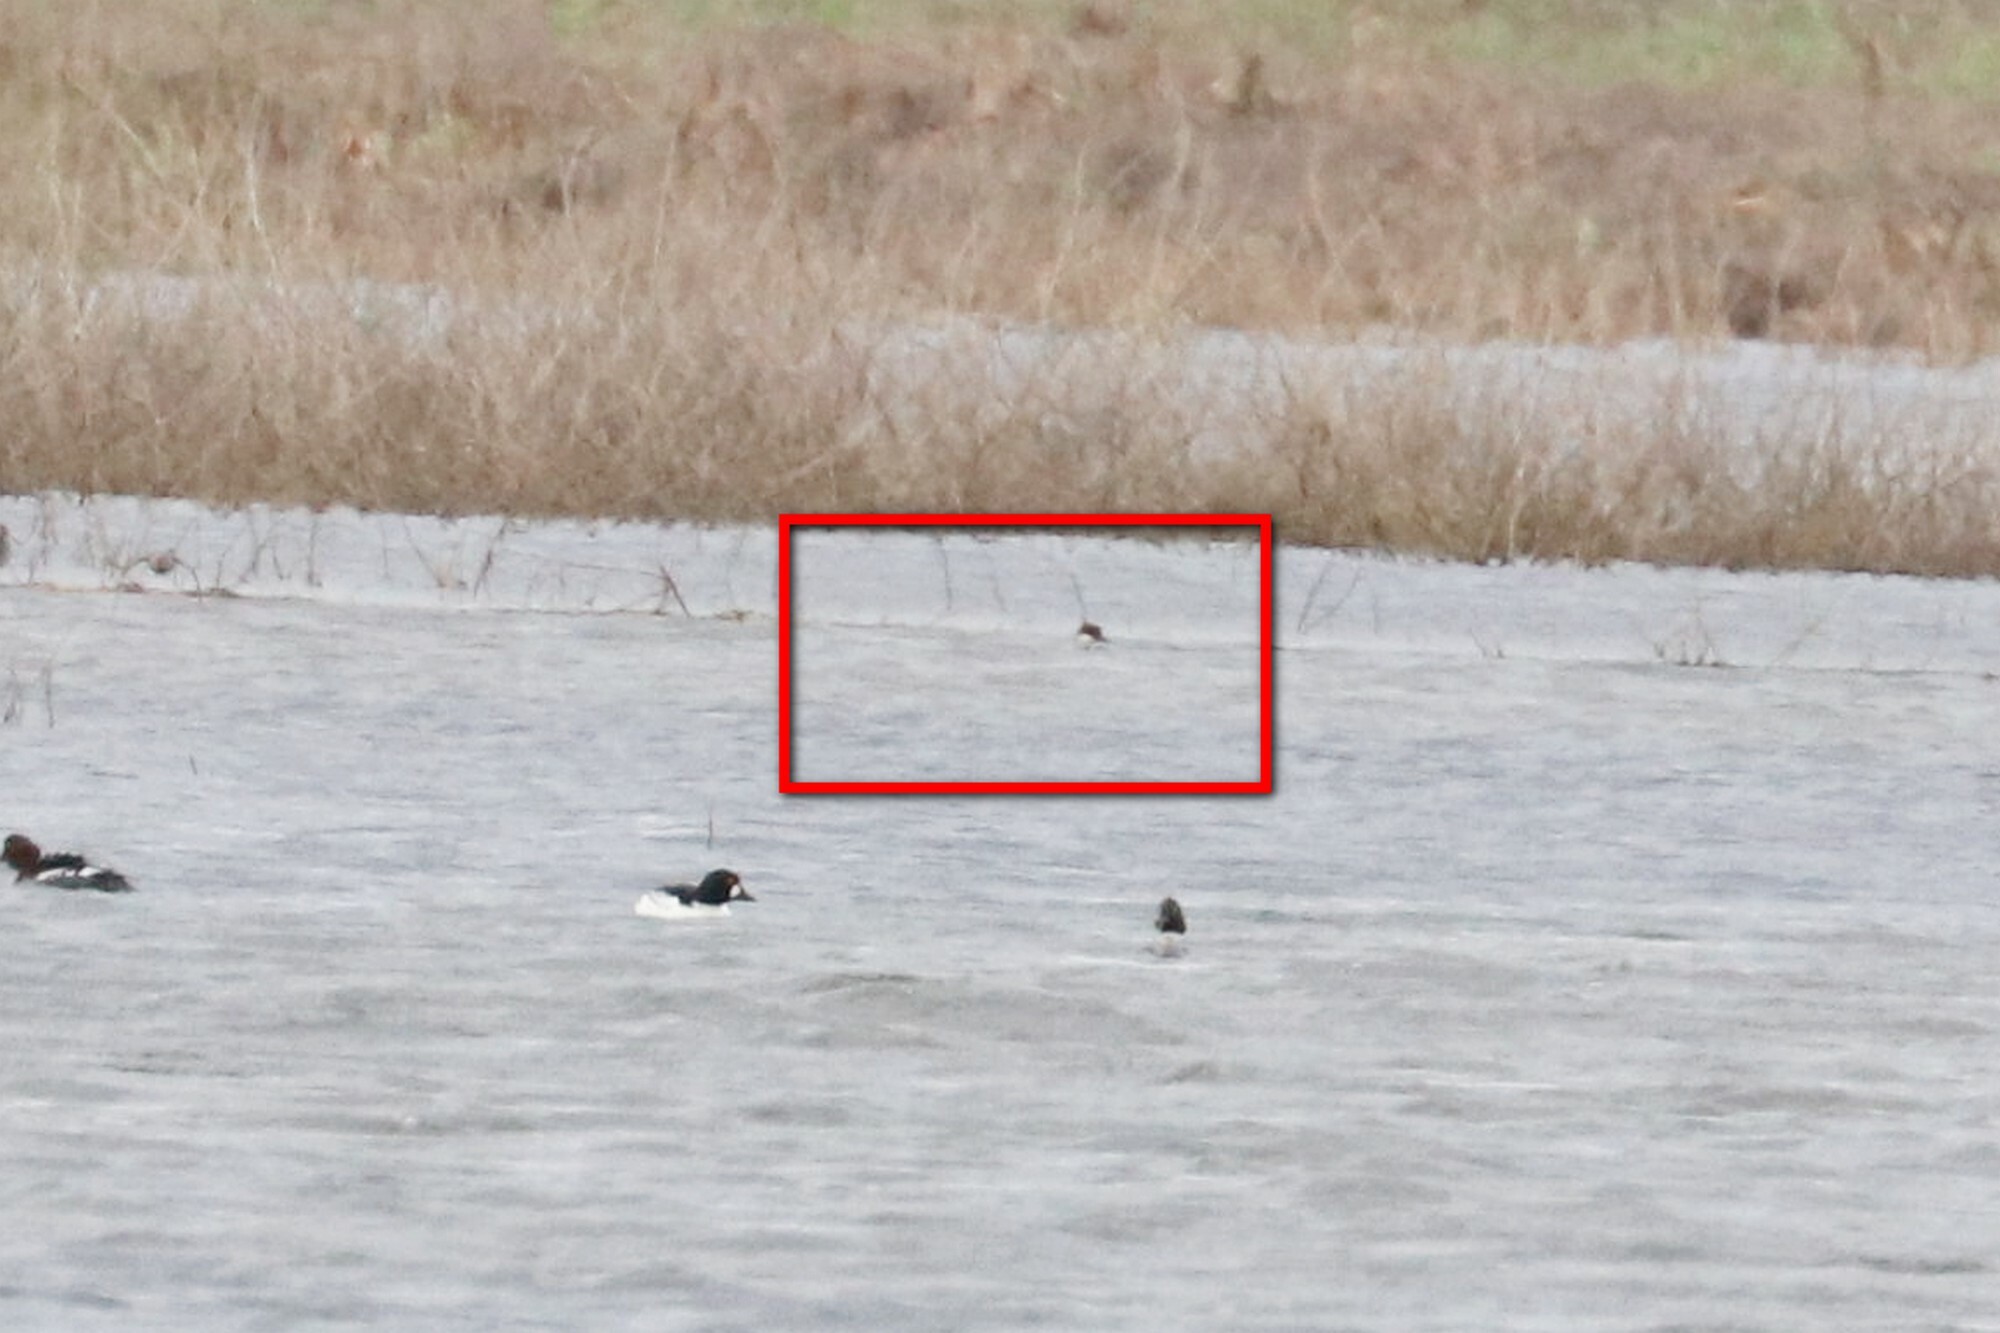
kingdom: Animalia
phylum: Chordata
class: Aves
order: Anseriformes
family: Anatidae
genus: Mergellus
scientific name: Mergellus albellus
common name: Smew
